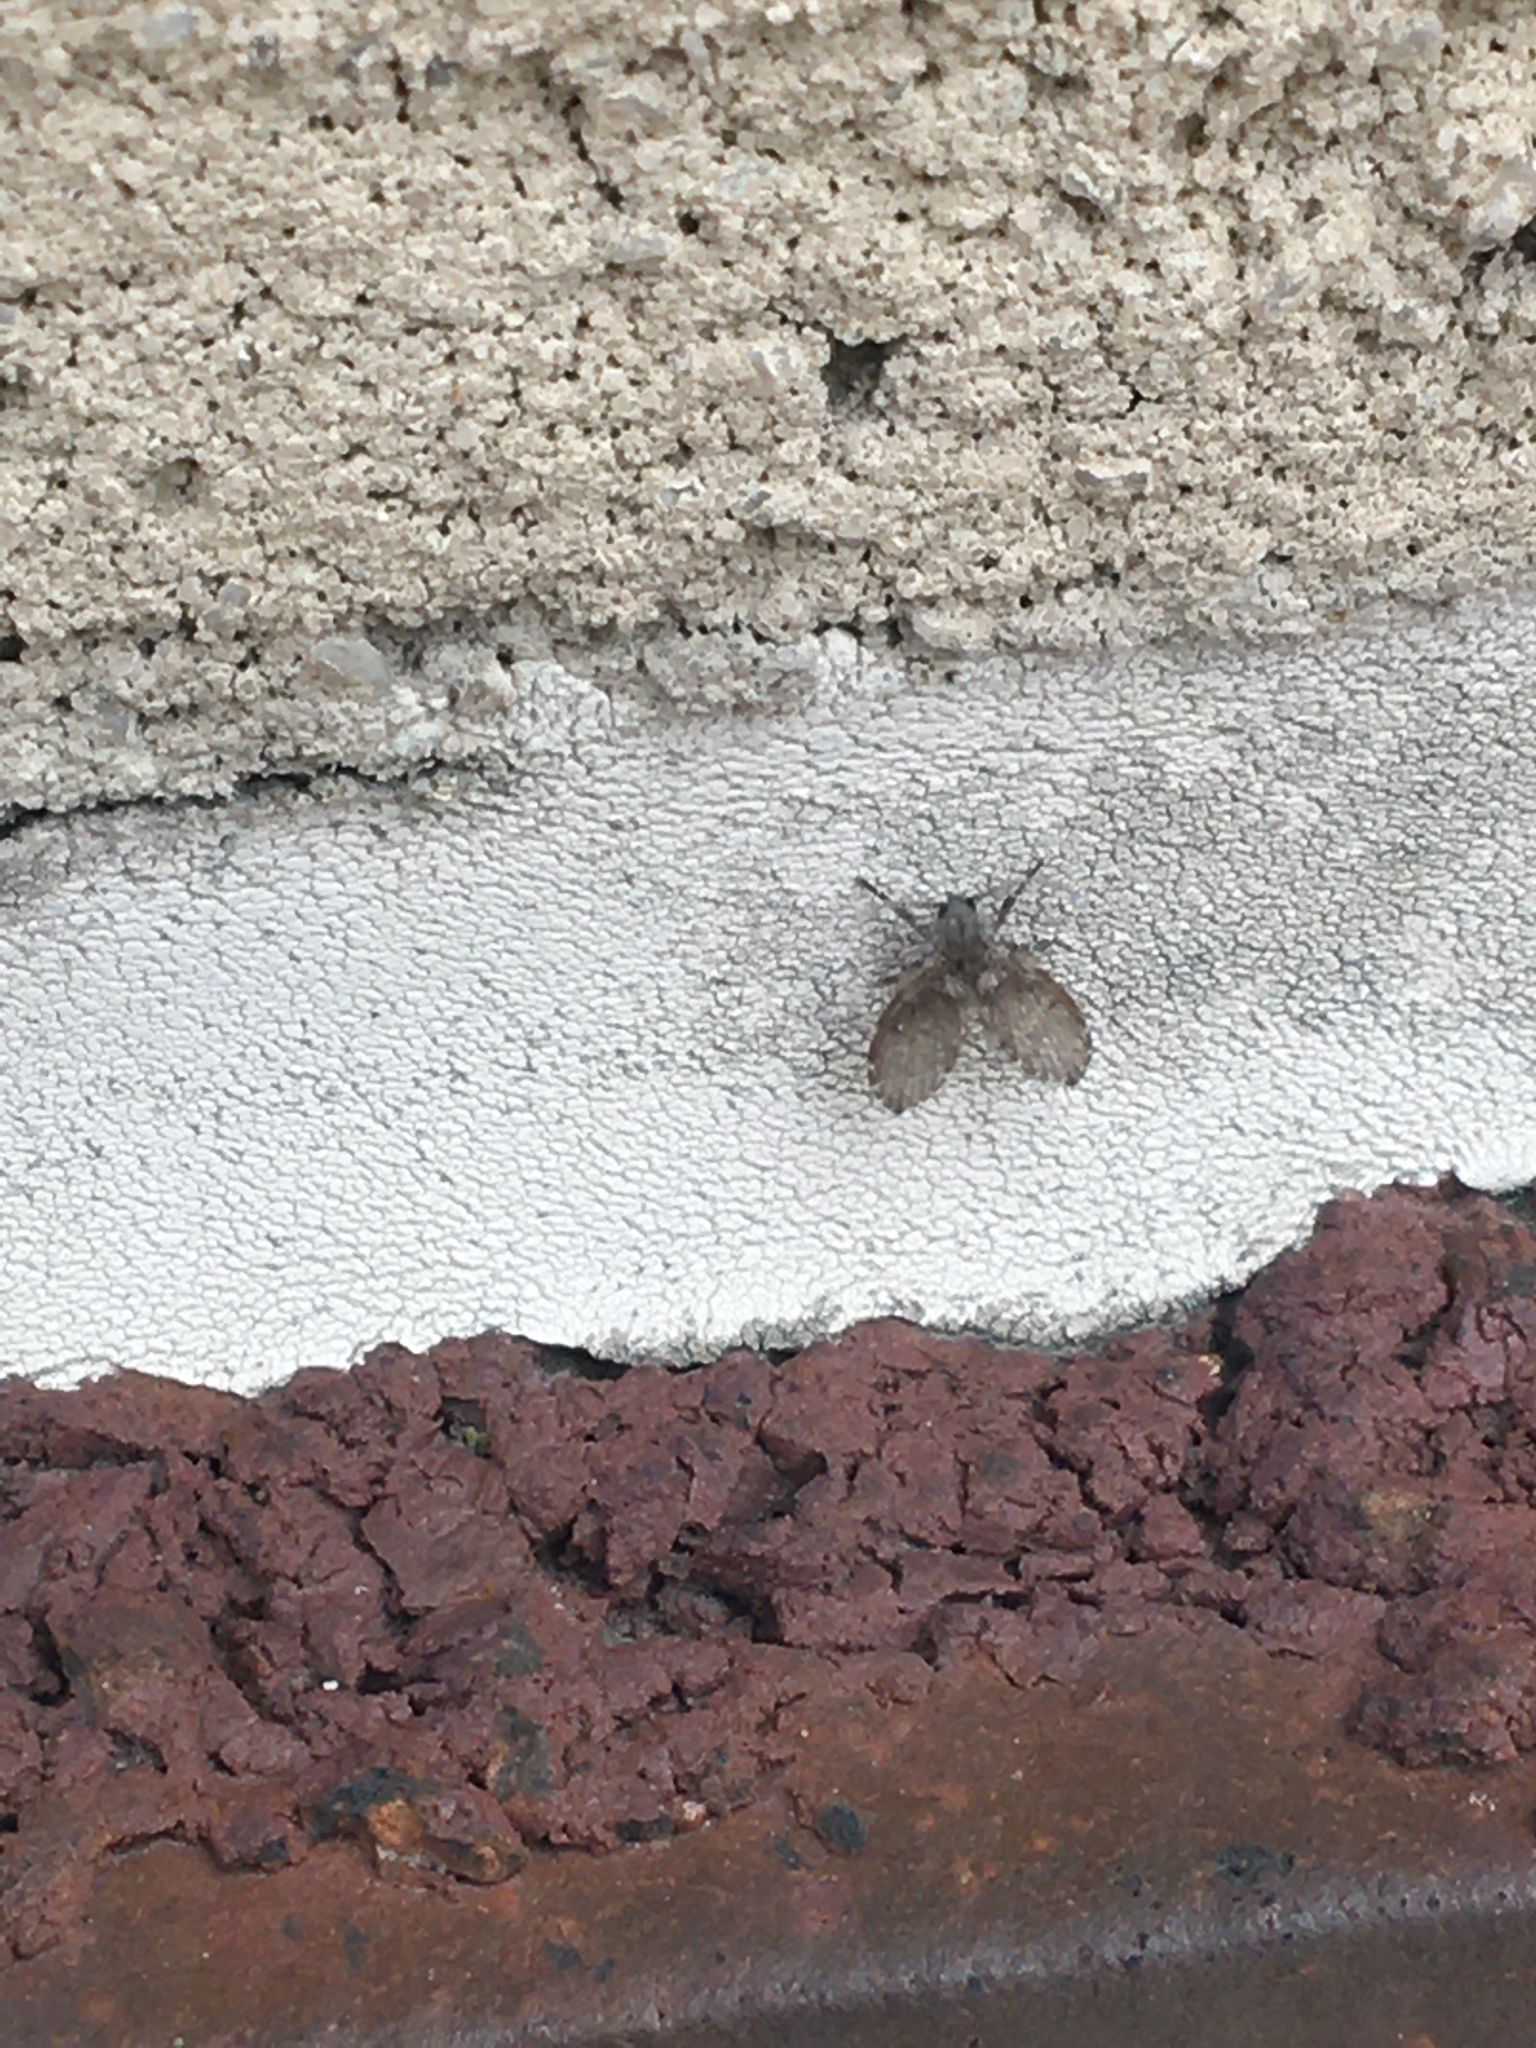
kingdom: Animalia
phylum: Arthropoda
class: Insecta
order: Diptera
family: Psychodidae
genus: Clogmia
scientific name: Clogmia albipunctatus
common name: White-spotted moth fly
